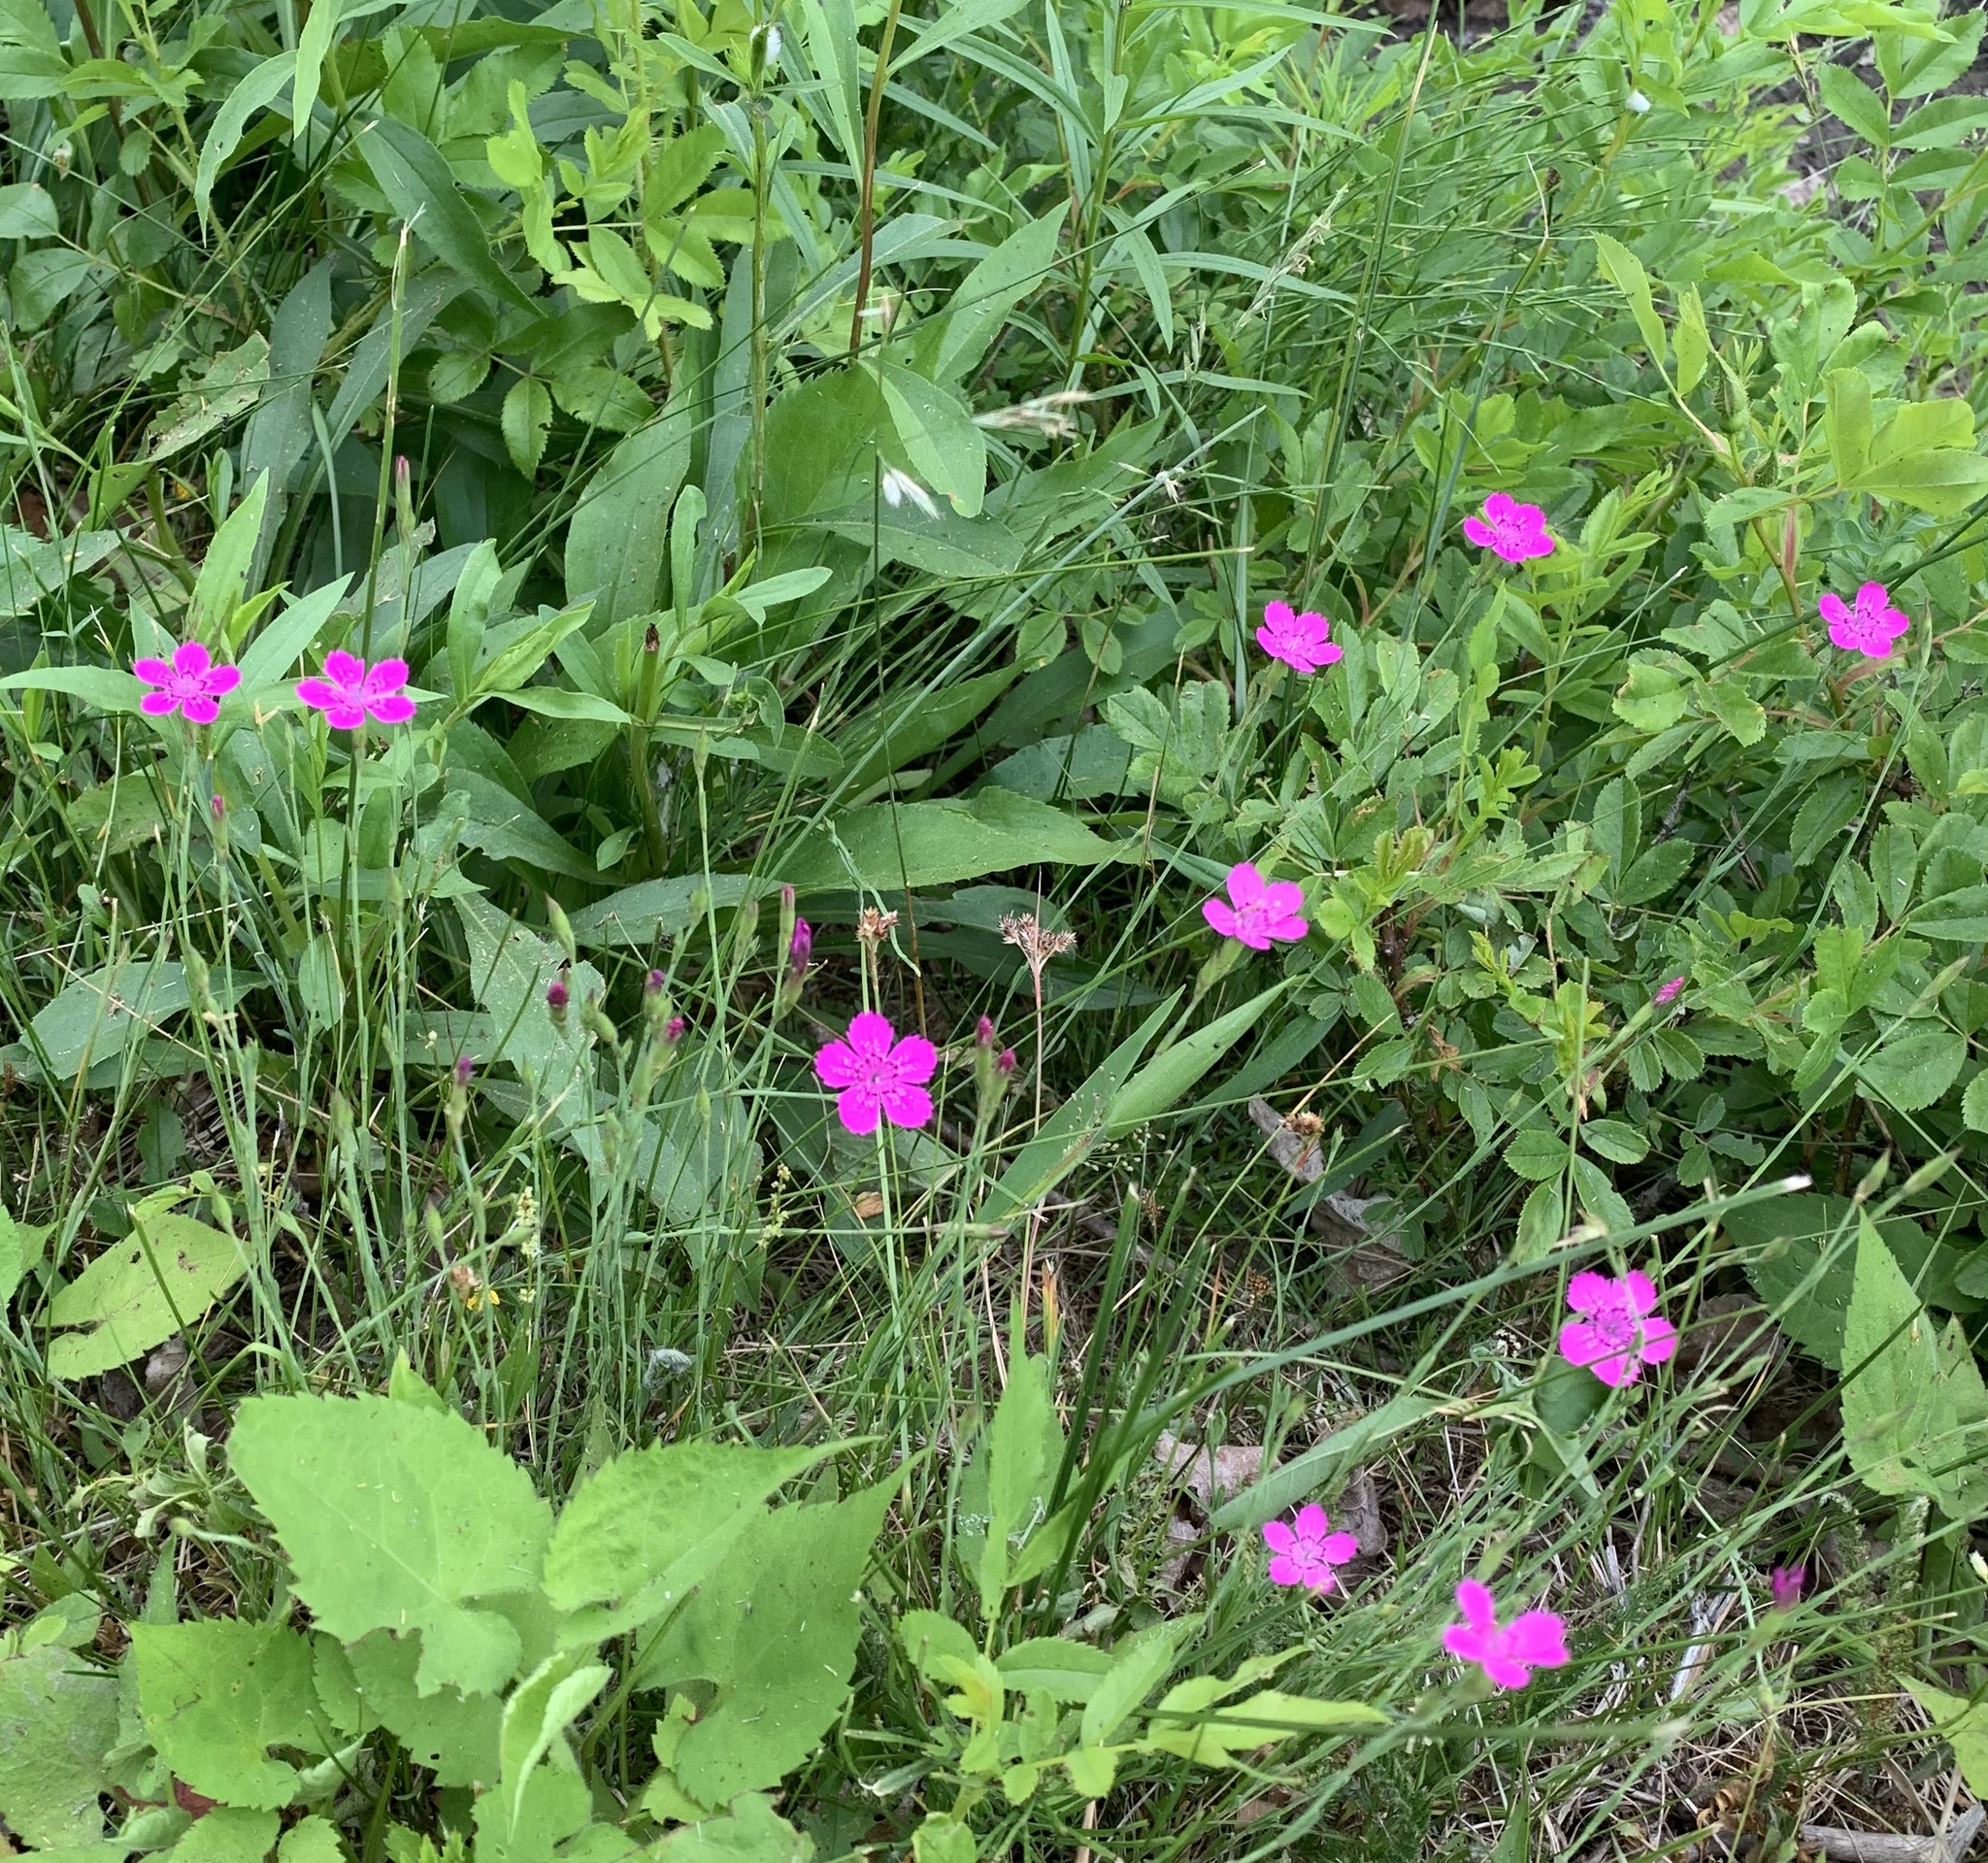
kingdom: Plantae
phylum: Tracheophyta
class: Magnoliopsida
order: Caryophyllales
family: Caryophyllaceae
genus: Dianthus
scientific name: Dianthus deltoides
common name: Maiden pink
